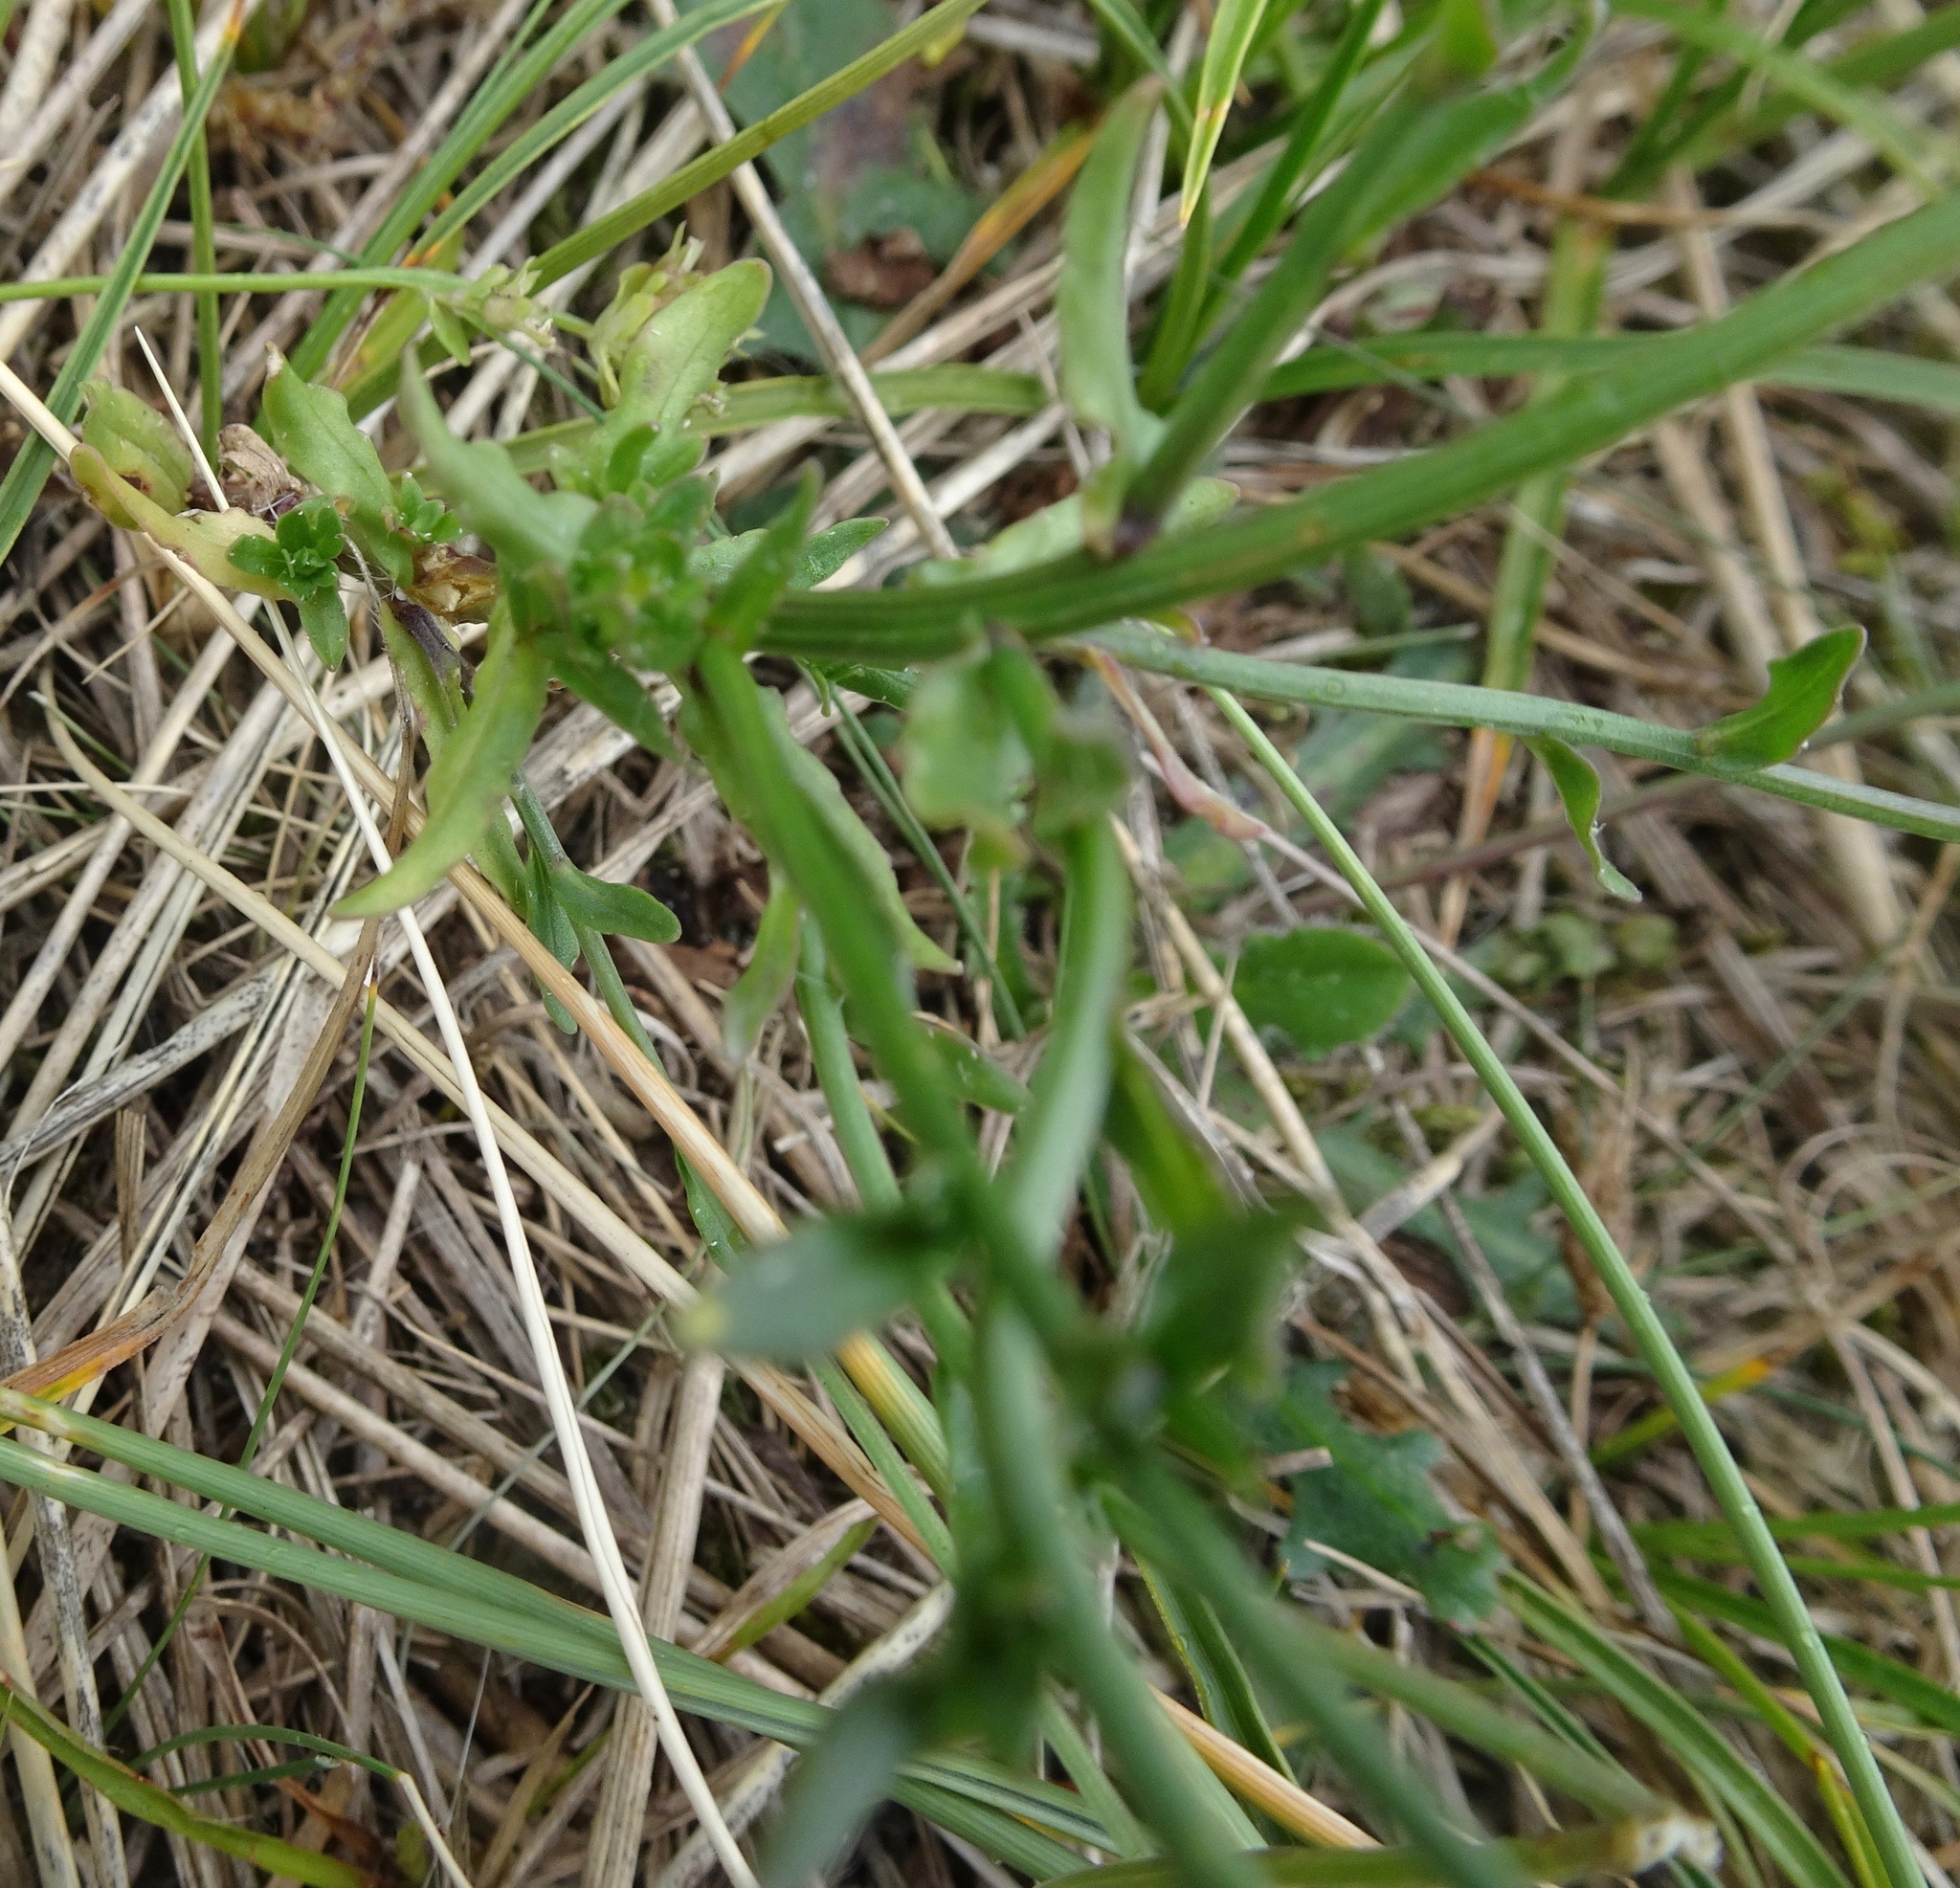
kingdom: Plantae
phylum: Tracheophyta
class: Magnoliopsida
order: Asterales
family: Asteraceae
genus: Sonchus
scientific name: Sonchus arvensis
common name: Perennial sow-thistle
